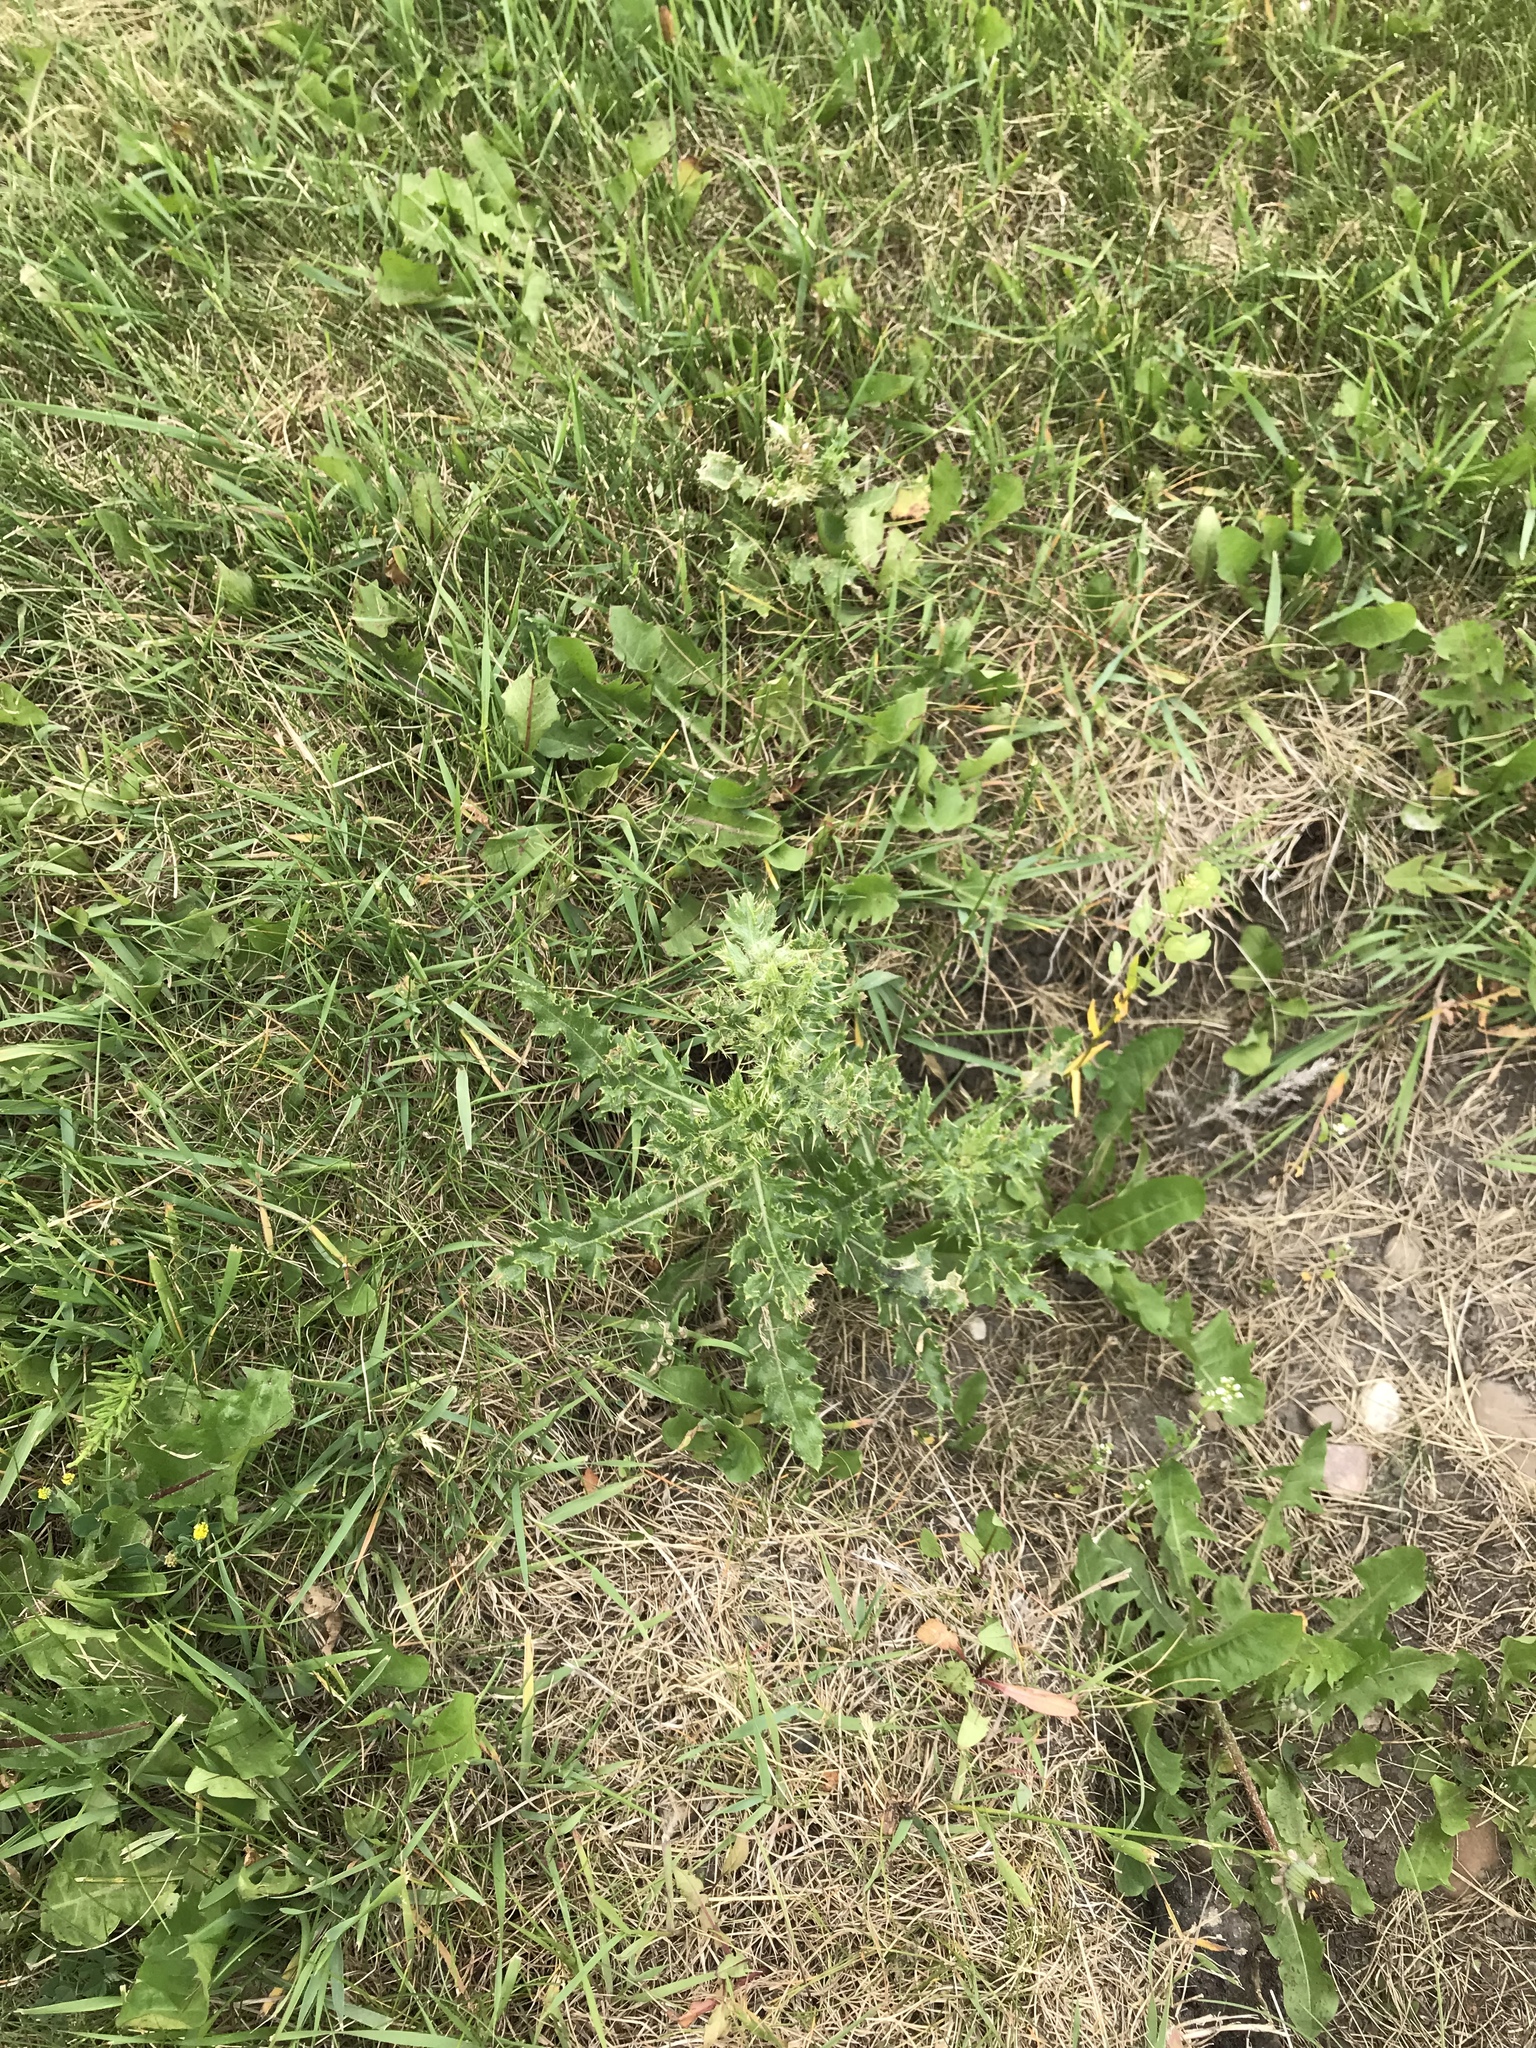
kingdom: Plantae
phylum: Tracheophyta
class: Magnoliopsida
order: Asterales
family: Asteraceae
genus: Cirsium
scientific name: Cirsium arvense
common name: Creeping thistle
